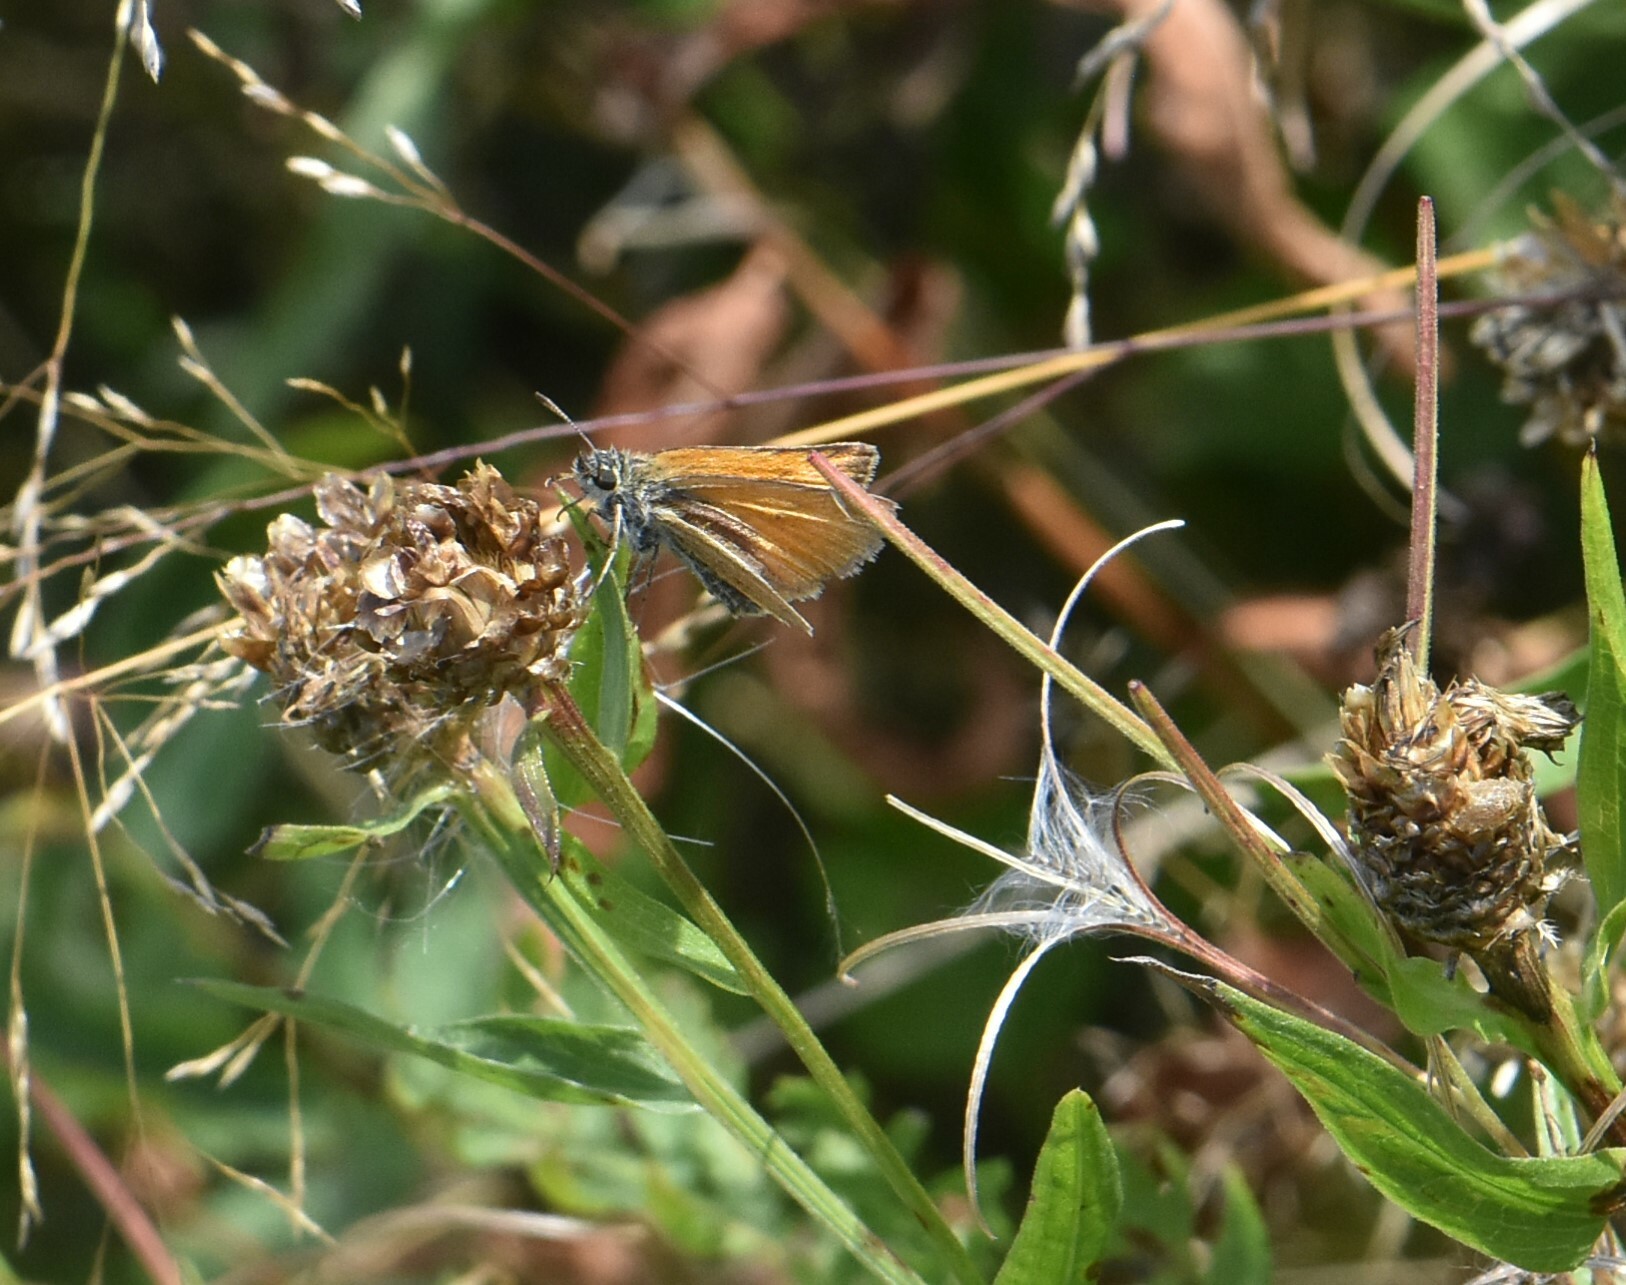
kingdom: Animalia
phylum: Arthropoda
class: Insecta
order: Lepidoptera
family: Hesperiidae
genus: Thymelicus
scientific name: Thymelicus lineola
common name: Essex skipper
